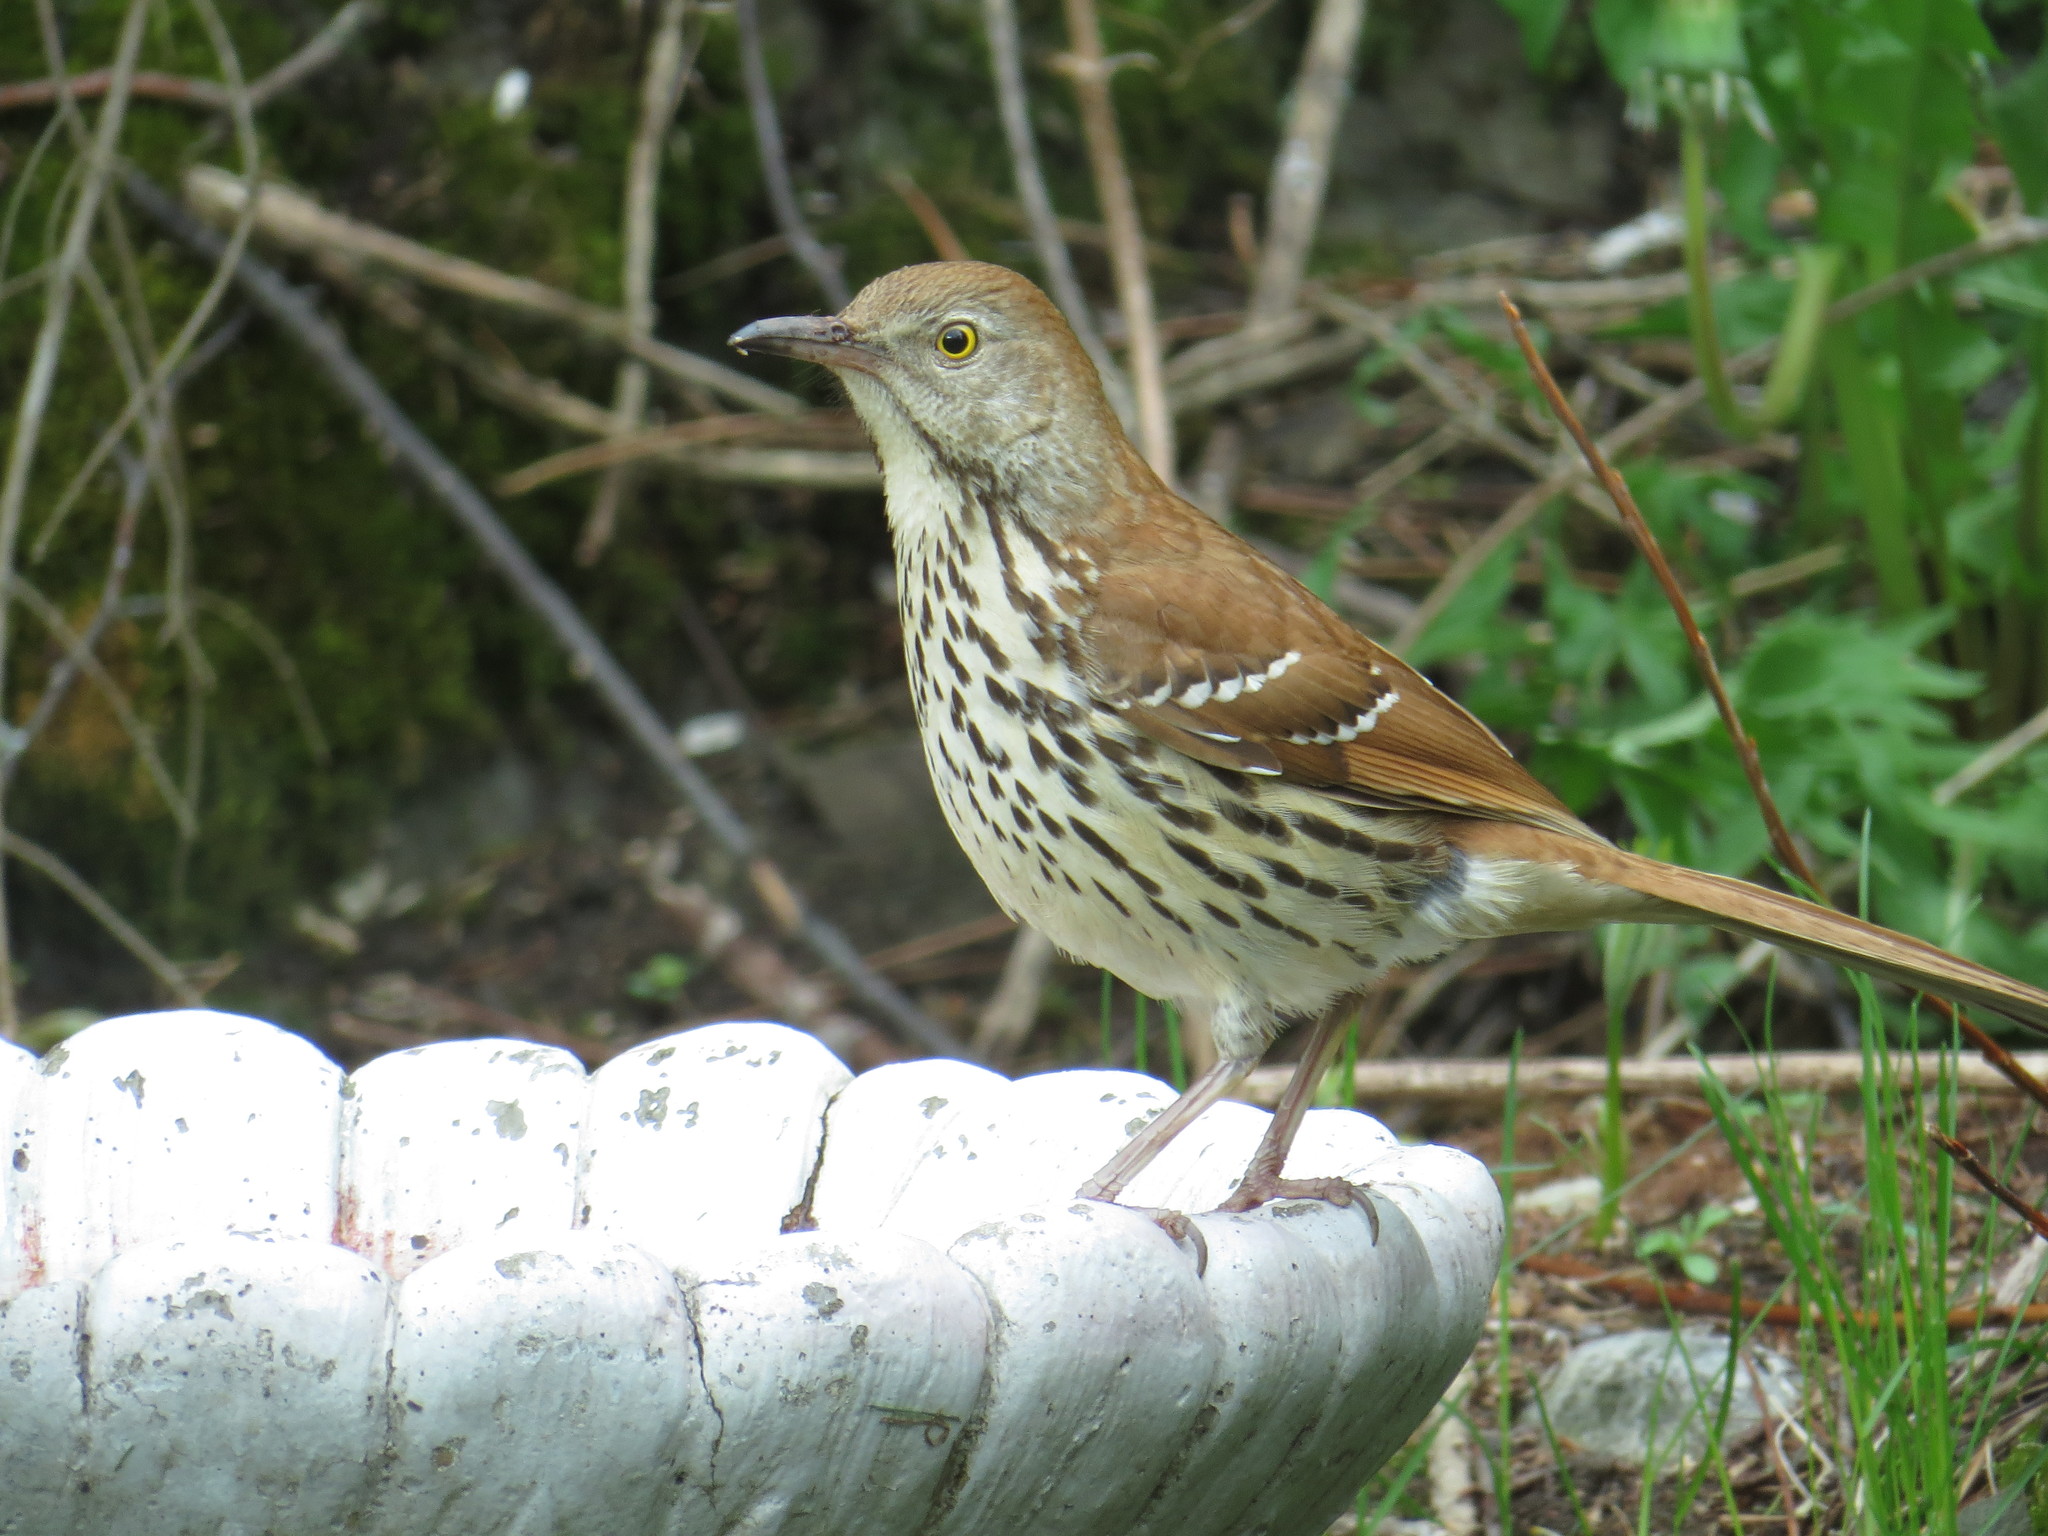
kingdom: Animalia
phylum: Chordata
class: Aves
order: Passeriformes
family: Mimidae
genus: Toxostoma
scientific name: Toxostoma rufum
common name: Brown thrasher
